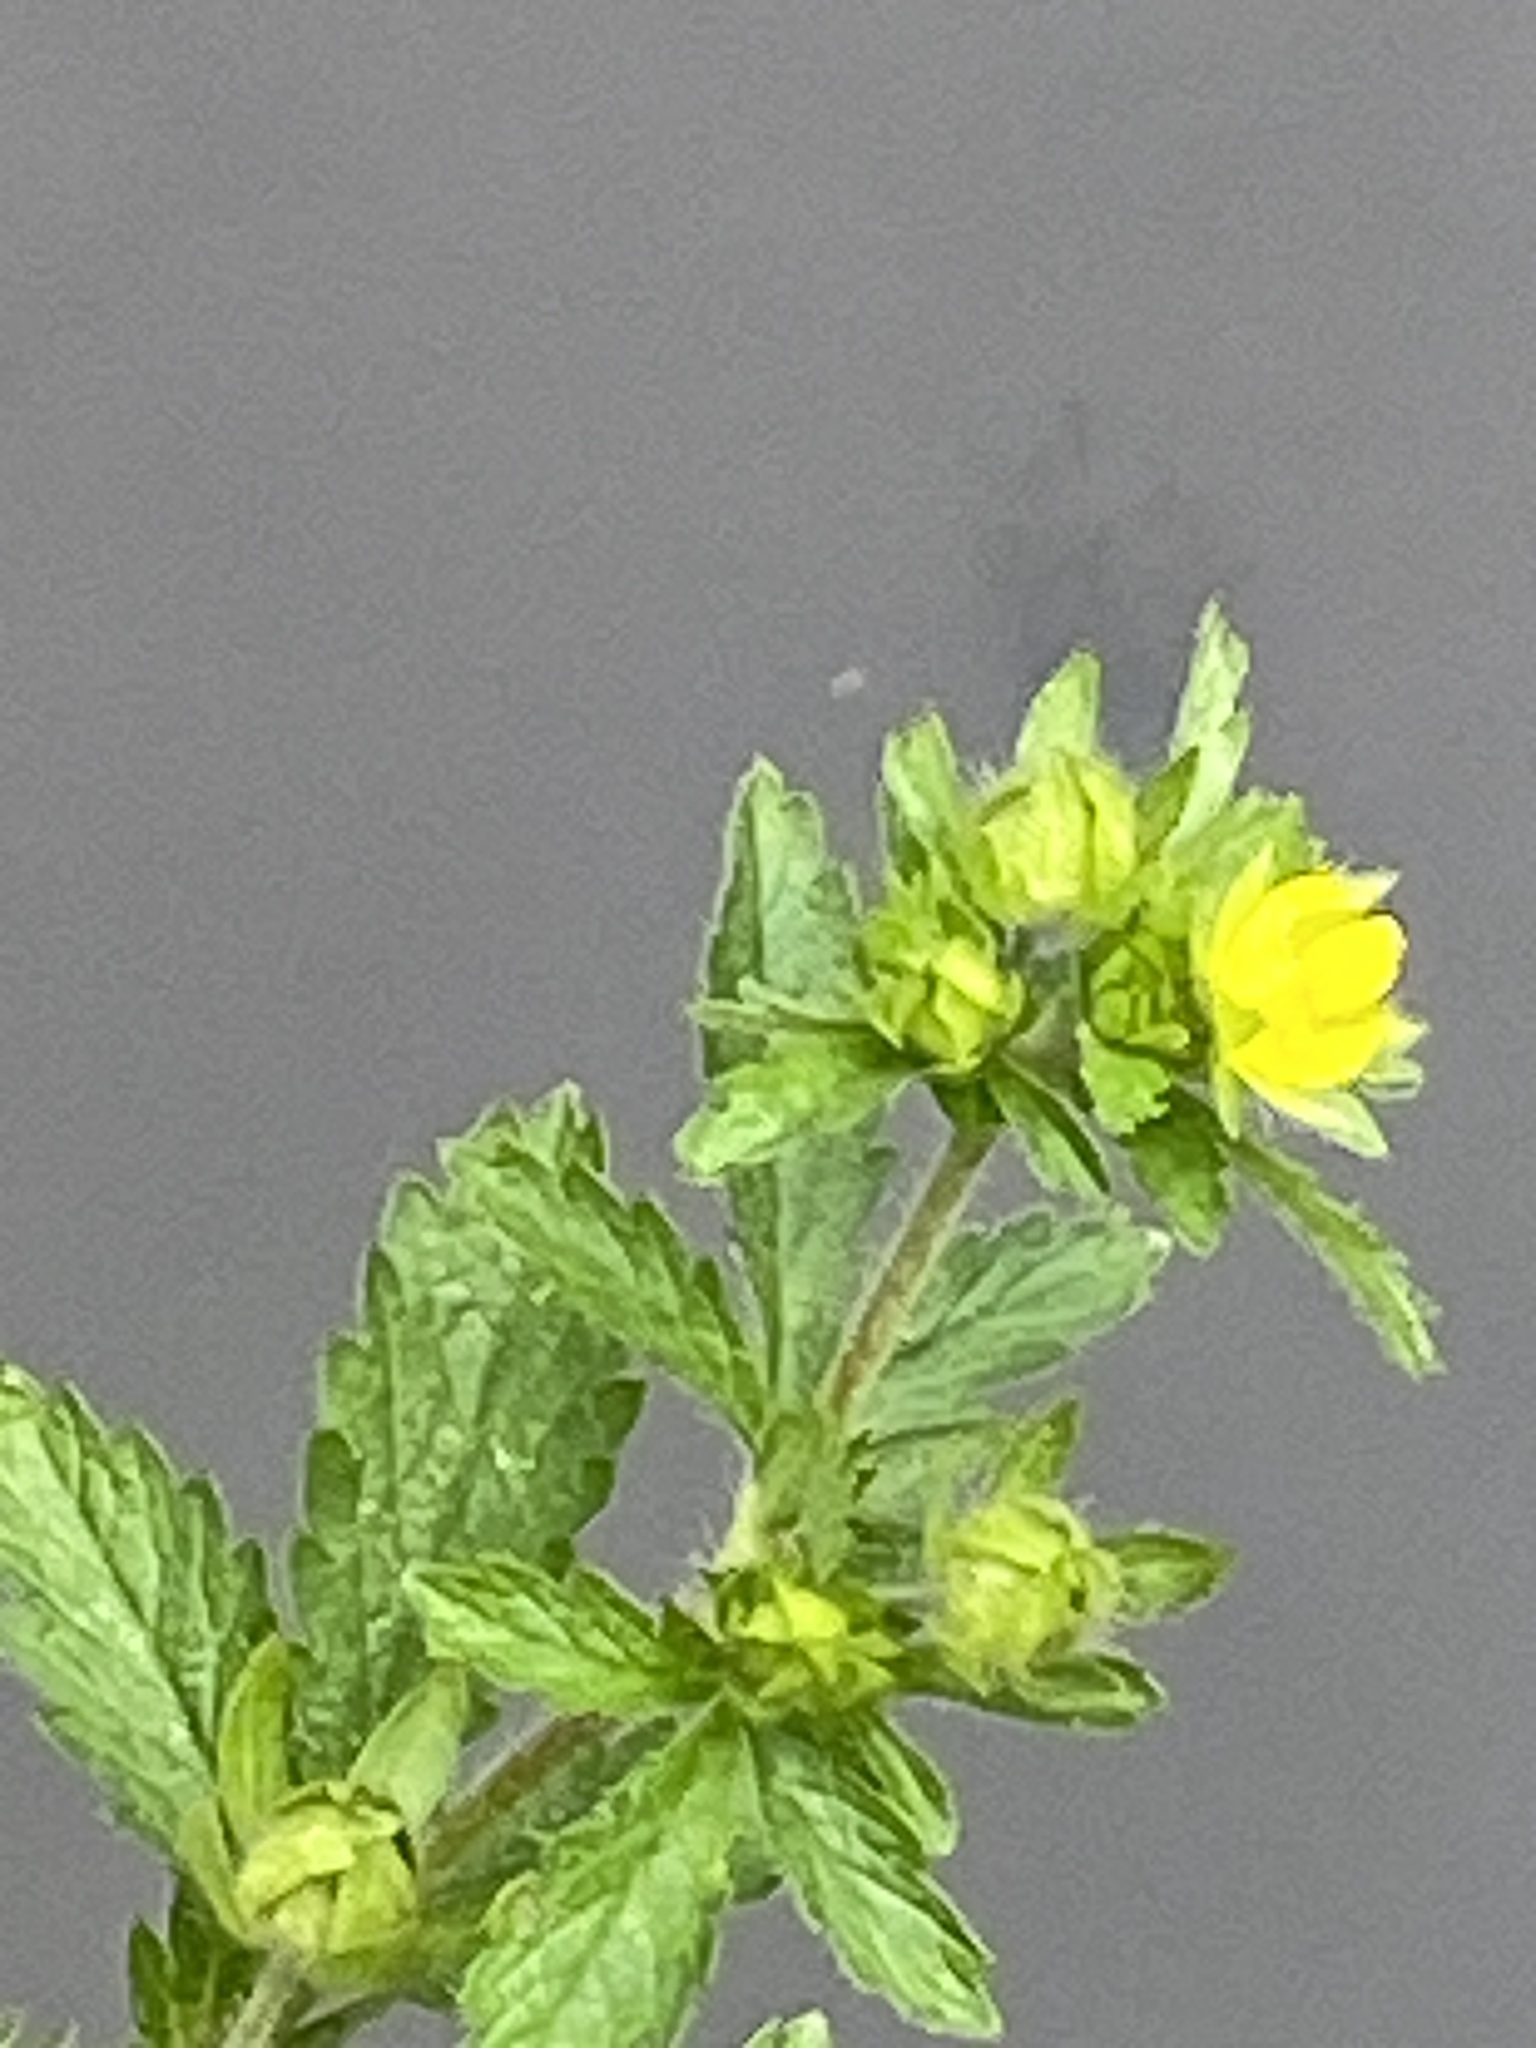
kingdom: Plantae
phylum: Tracheophyta
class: Magnoliopsida
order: Rosales
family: Rosaceae
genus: Potentilla
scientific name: Potentilla norvegica
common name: Ternate-leaved cinquefoil
